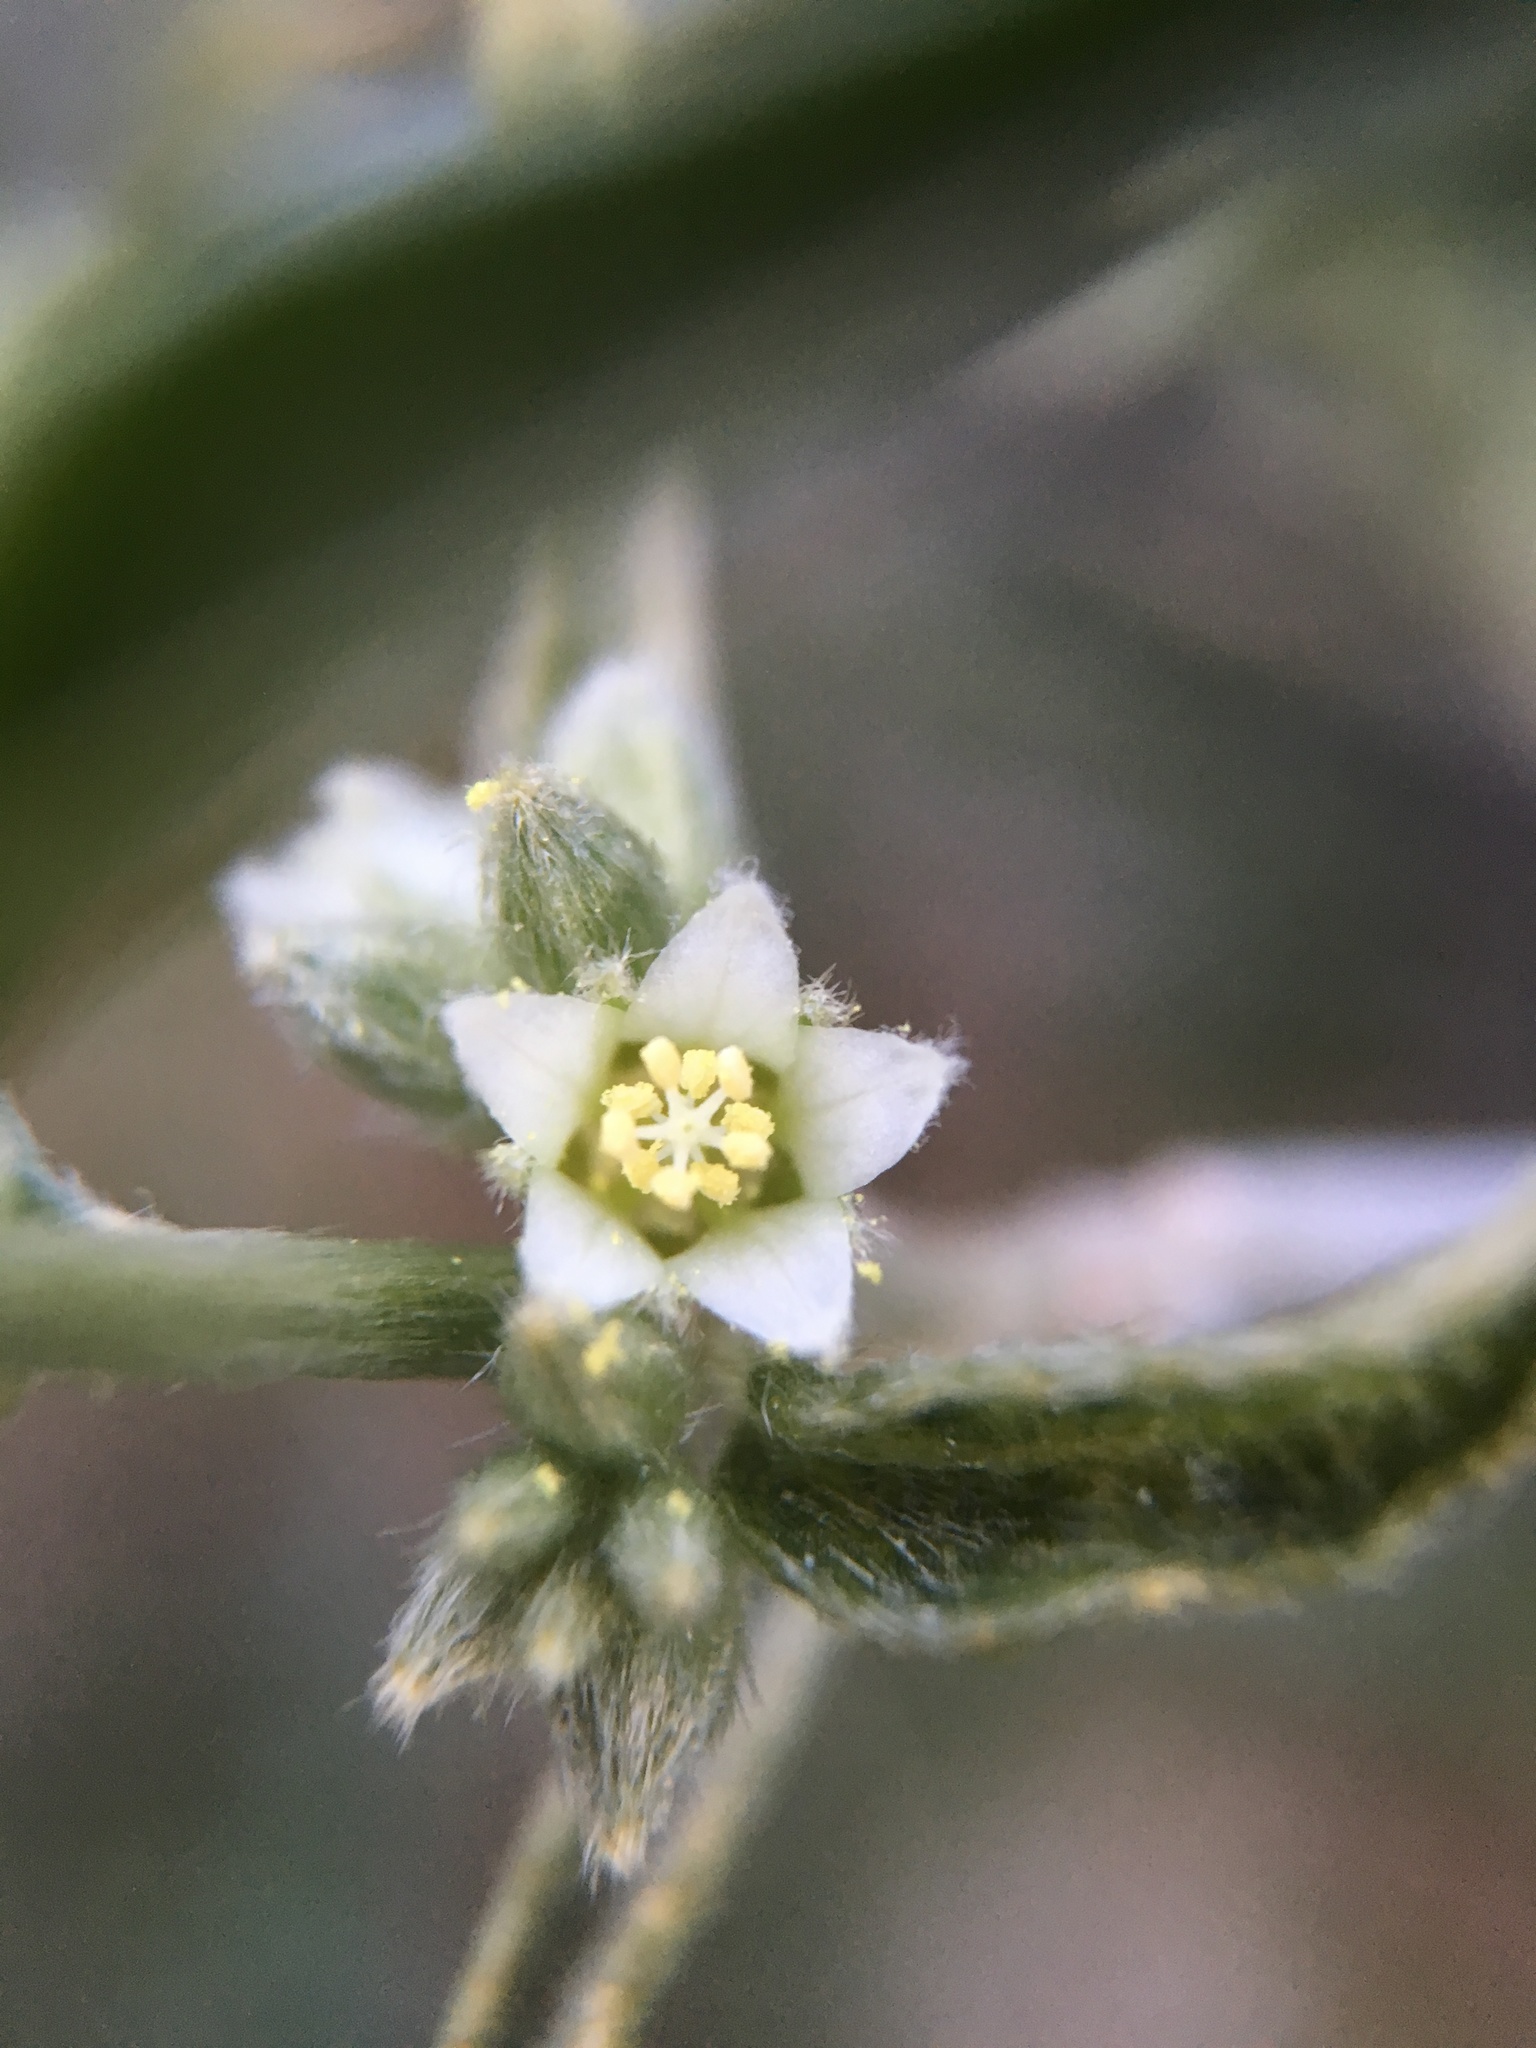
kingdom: Plantae
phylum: Tracheophyta
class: Magnoliopsida
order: Malpighiales
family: Euphorbiaceae
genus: Ditaxis
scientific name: Ditaxis lanceolata
